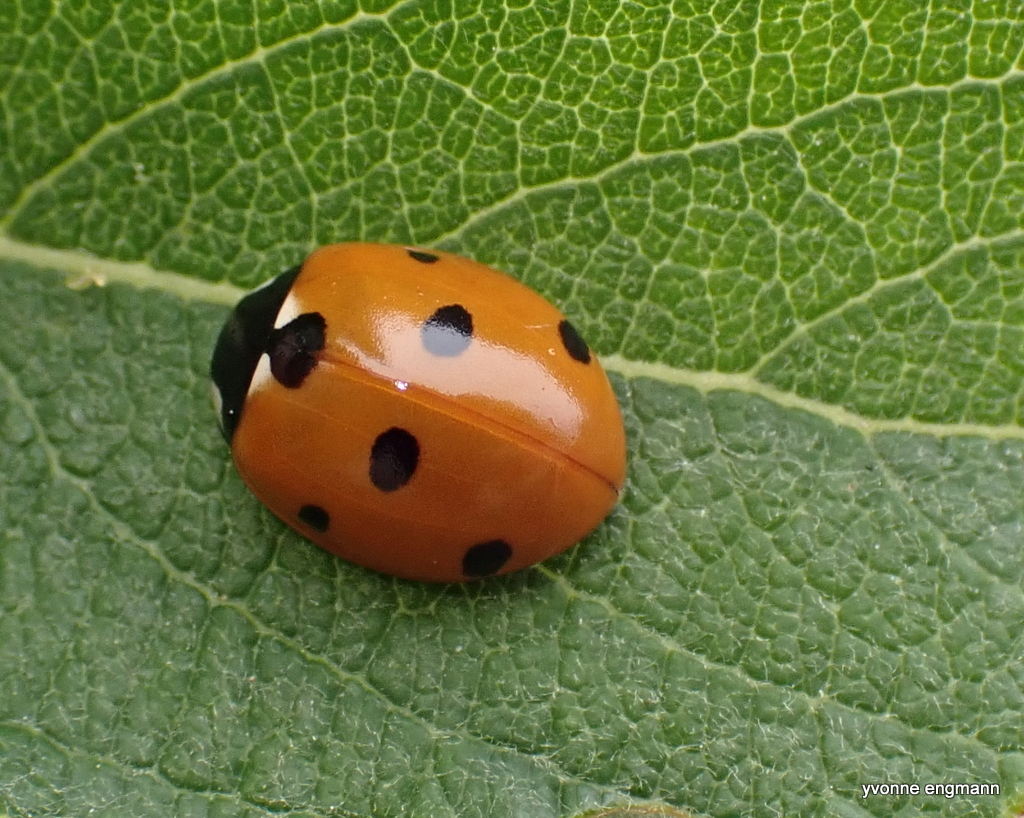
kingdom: Animalia
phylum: Arthropoda
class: Insecta
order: Coleoptera
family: Coccinellidae
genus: Coccinella
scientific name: Coccinella septempunctata
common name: Sevenspotted lady beetle
